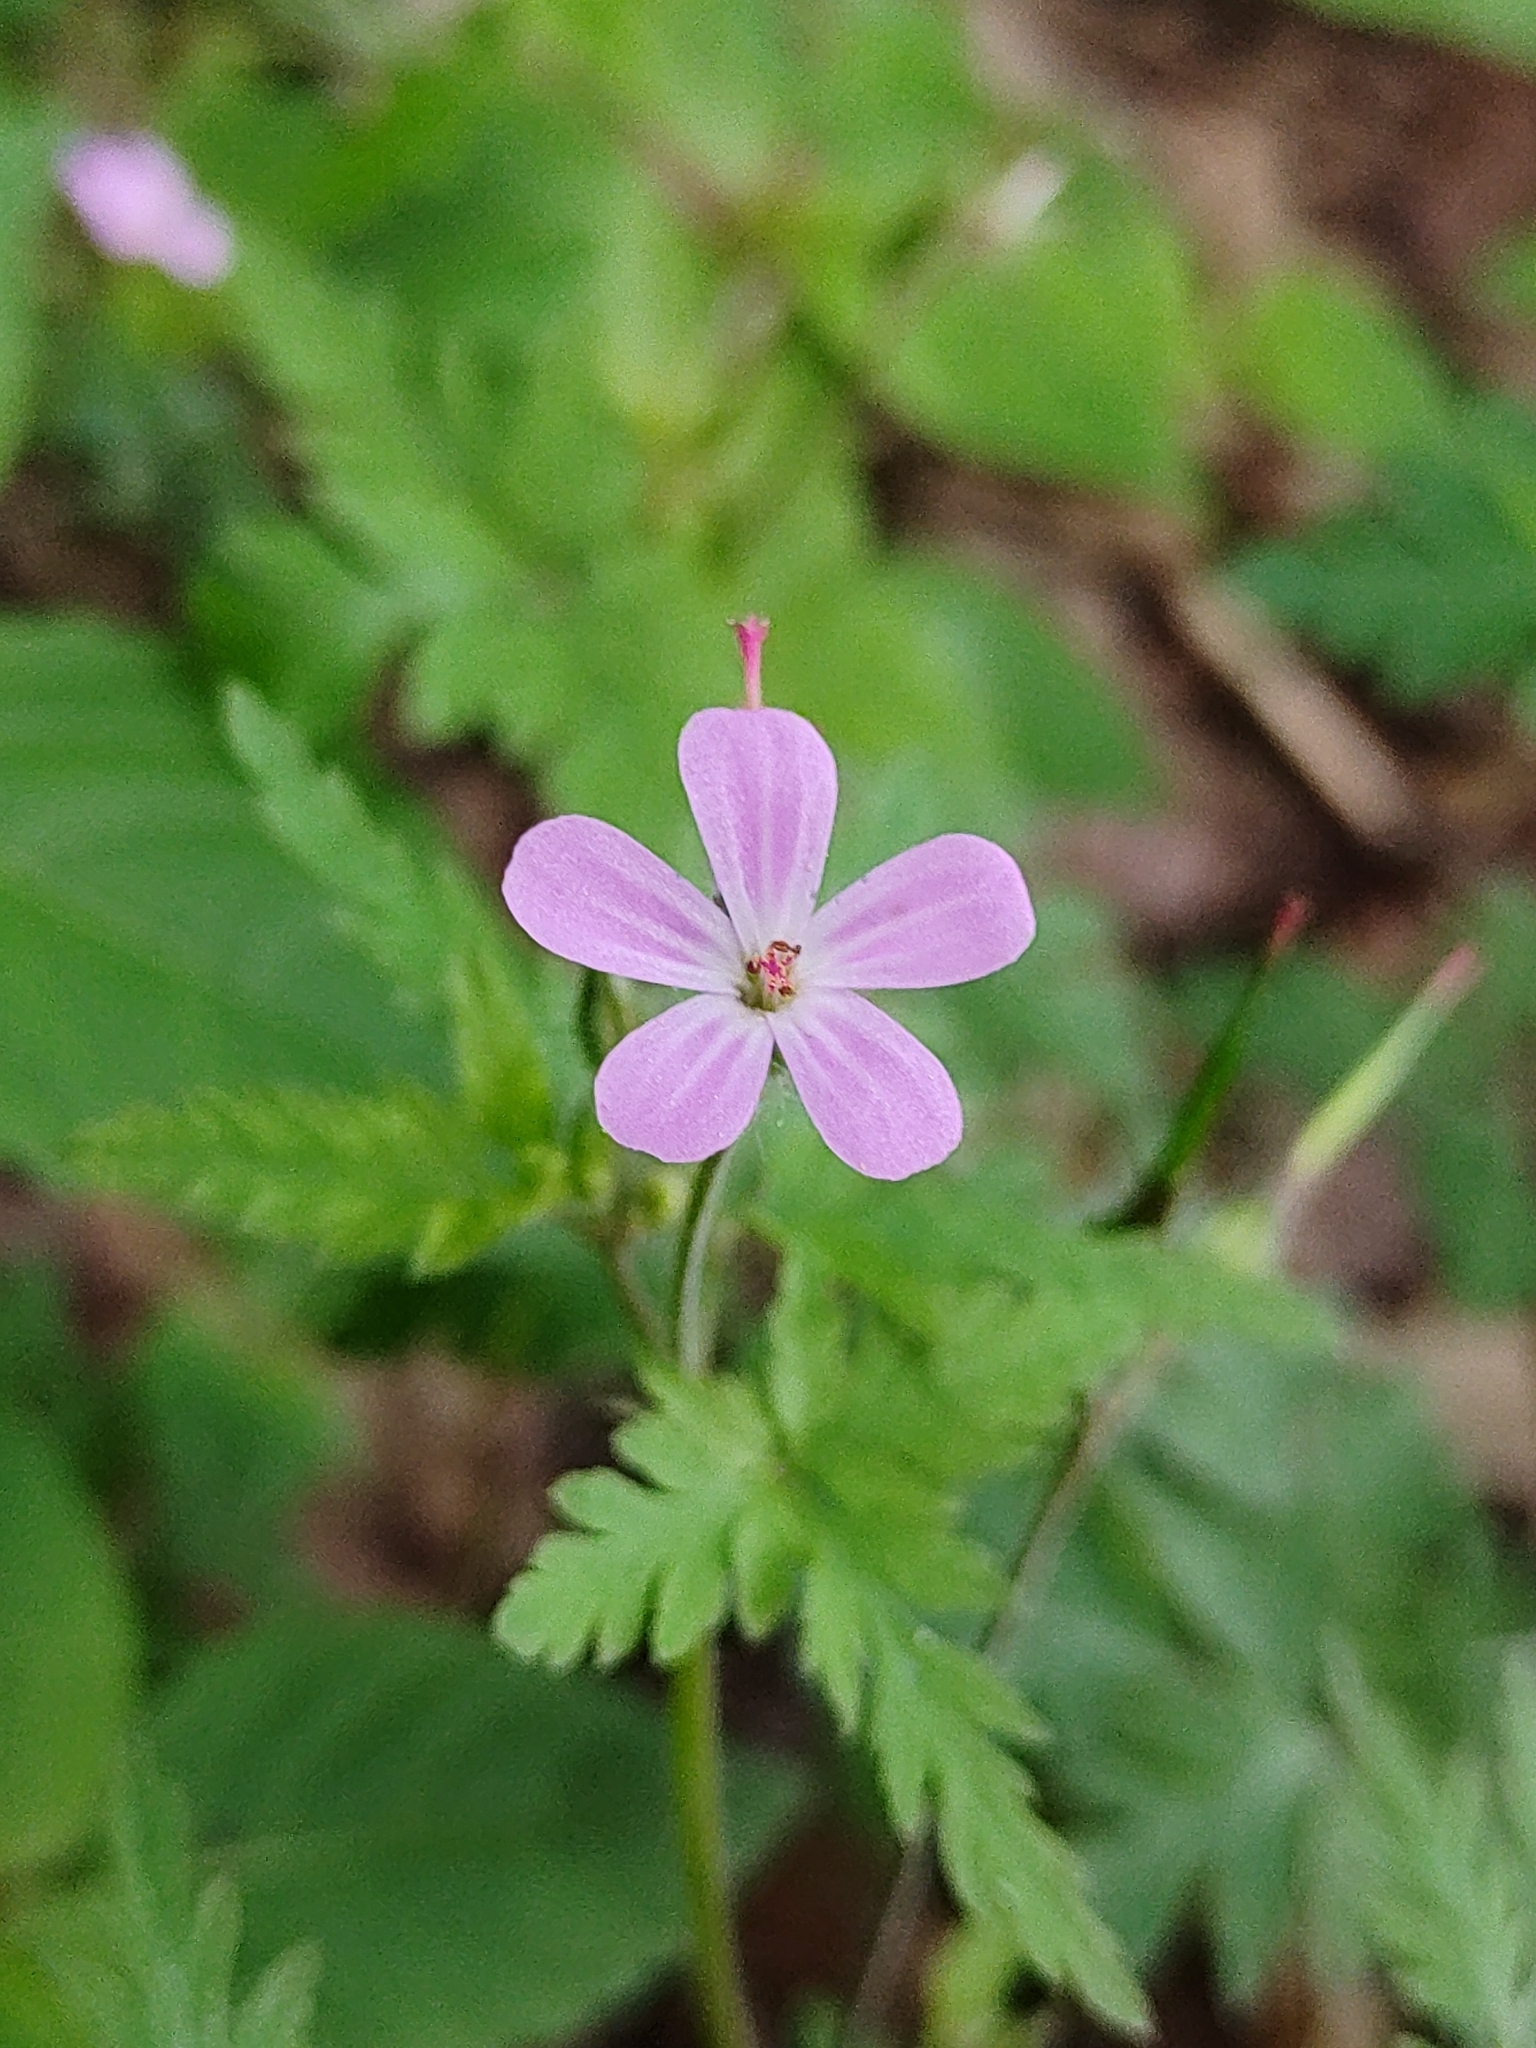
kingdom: Plantae
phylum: Tracheophyta
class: Magnoliopsida
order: Geraniales
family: Geraniaceae
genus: Geranium
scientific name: Geranium robertianum
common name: Herb-robert
